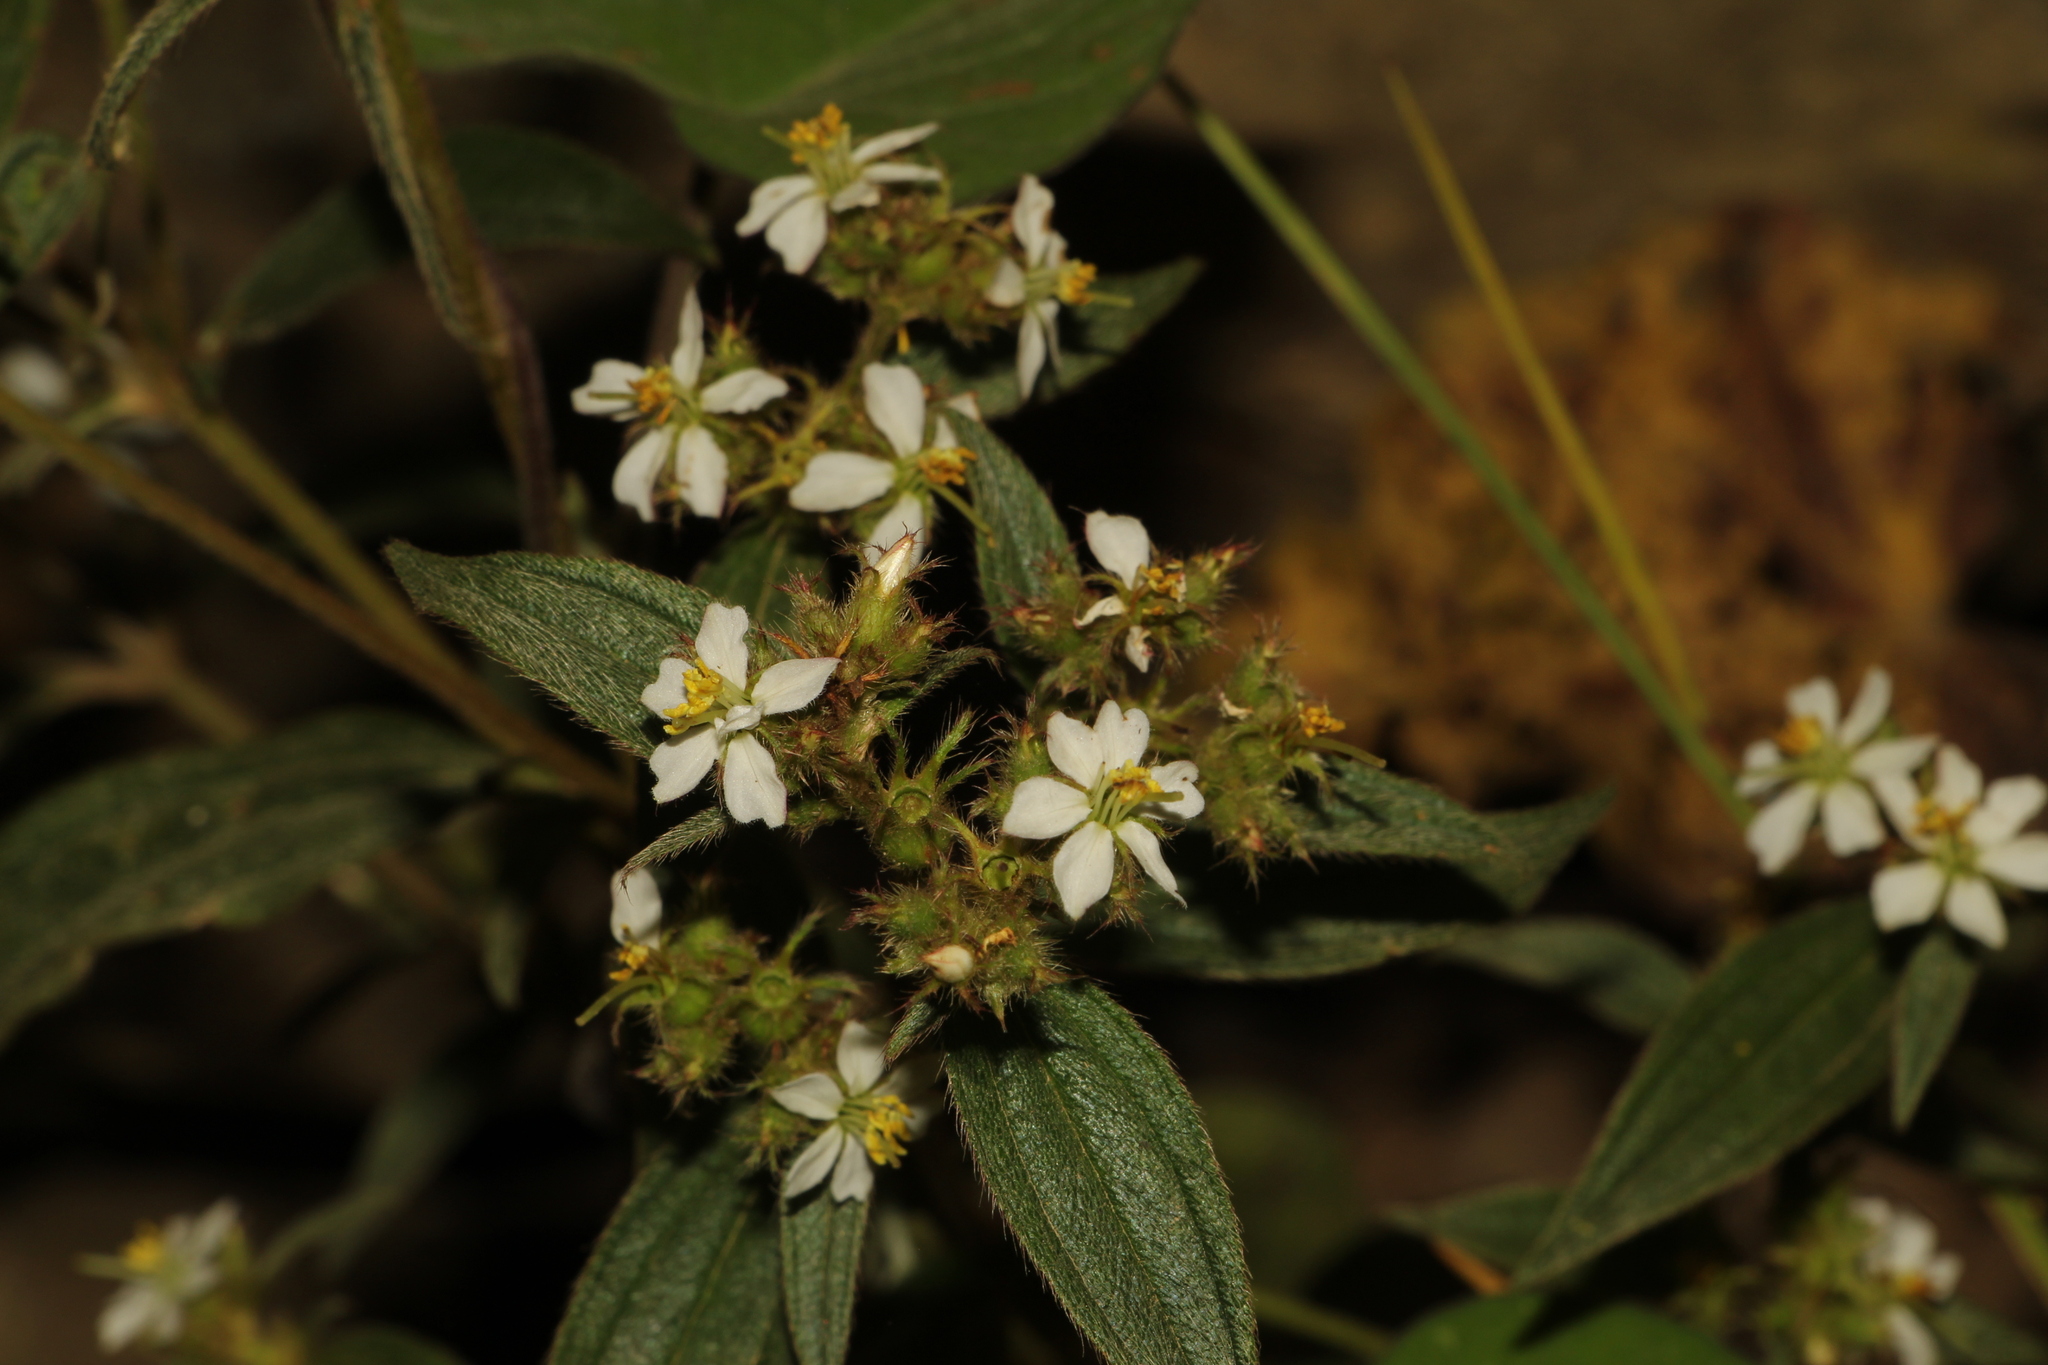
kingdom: Plantae
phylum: Tracheophyta
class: Magnoliopsida
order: Myrtales
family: Melastomataceae
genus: Chaetogastra
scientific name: Chaetogastra longifolia
